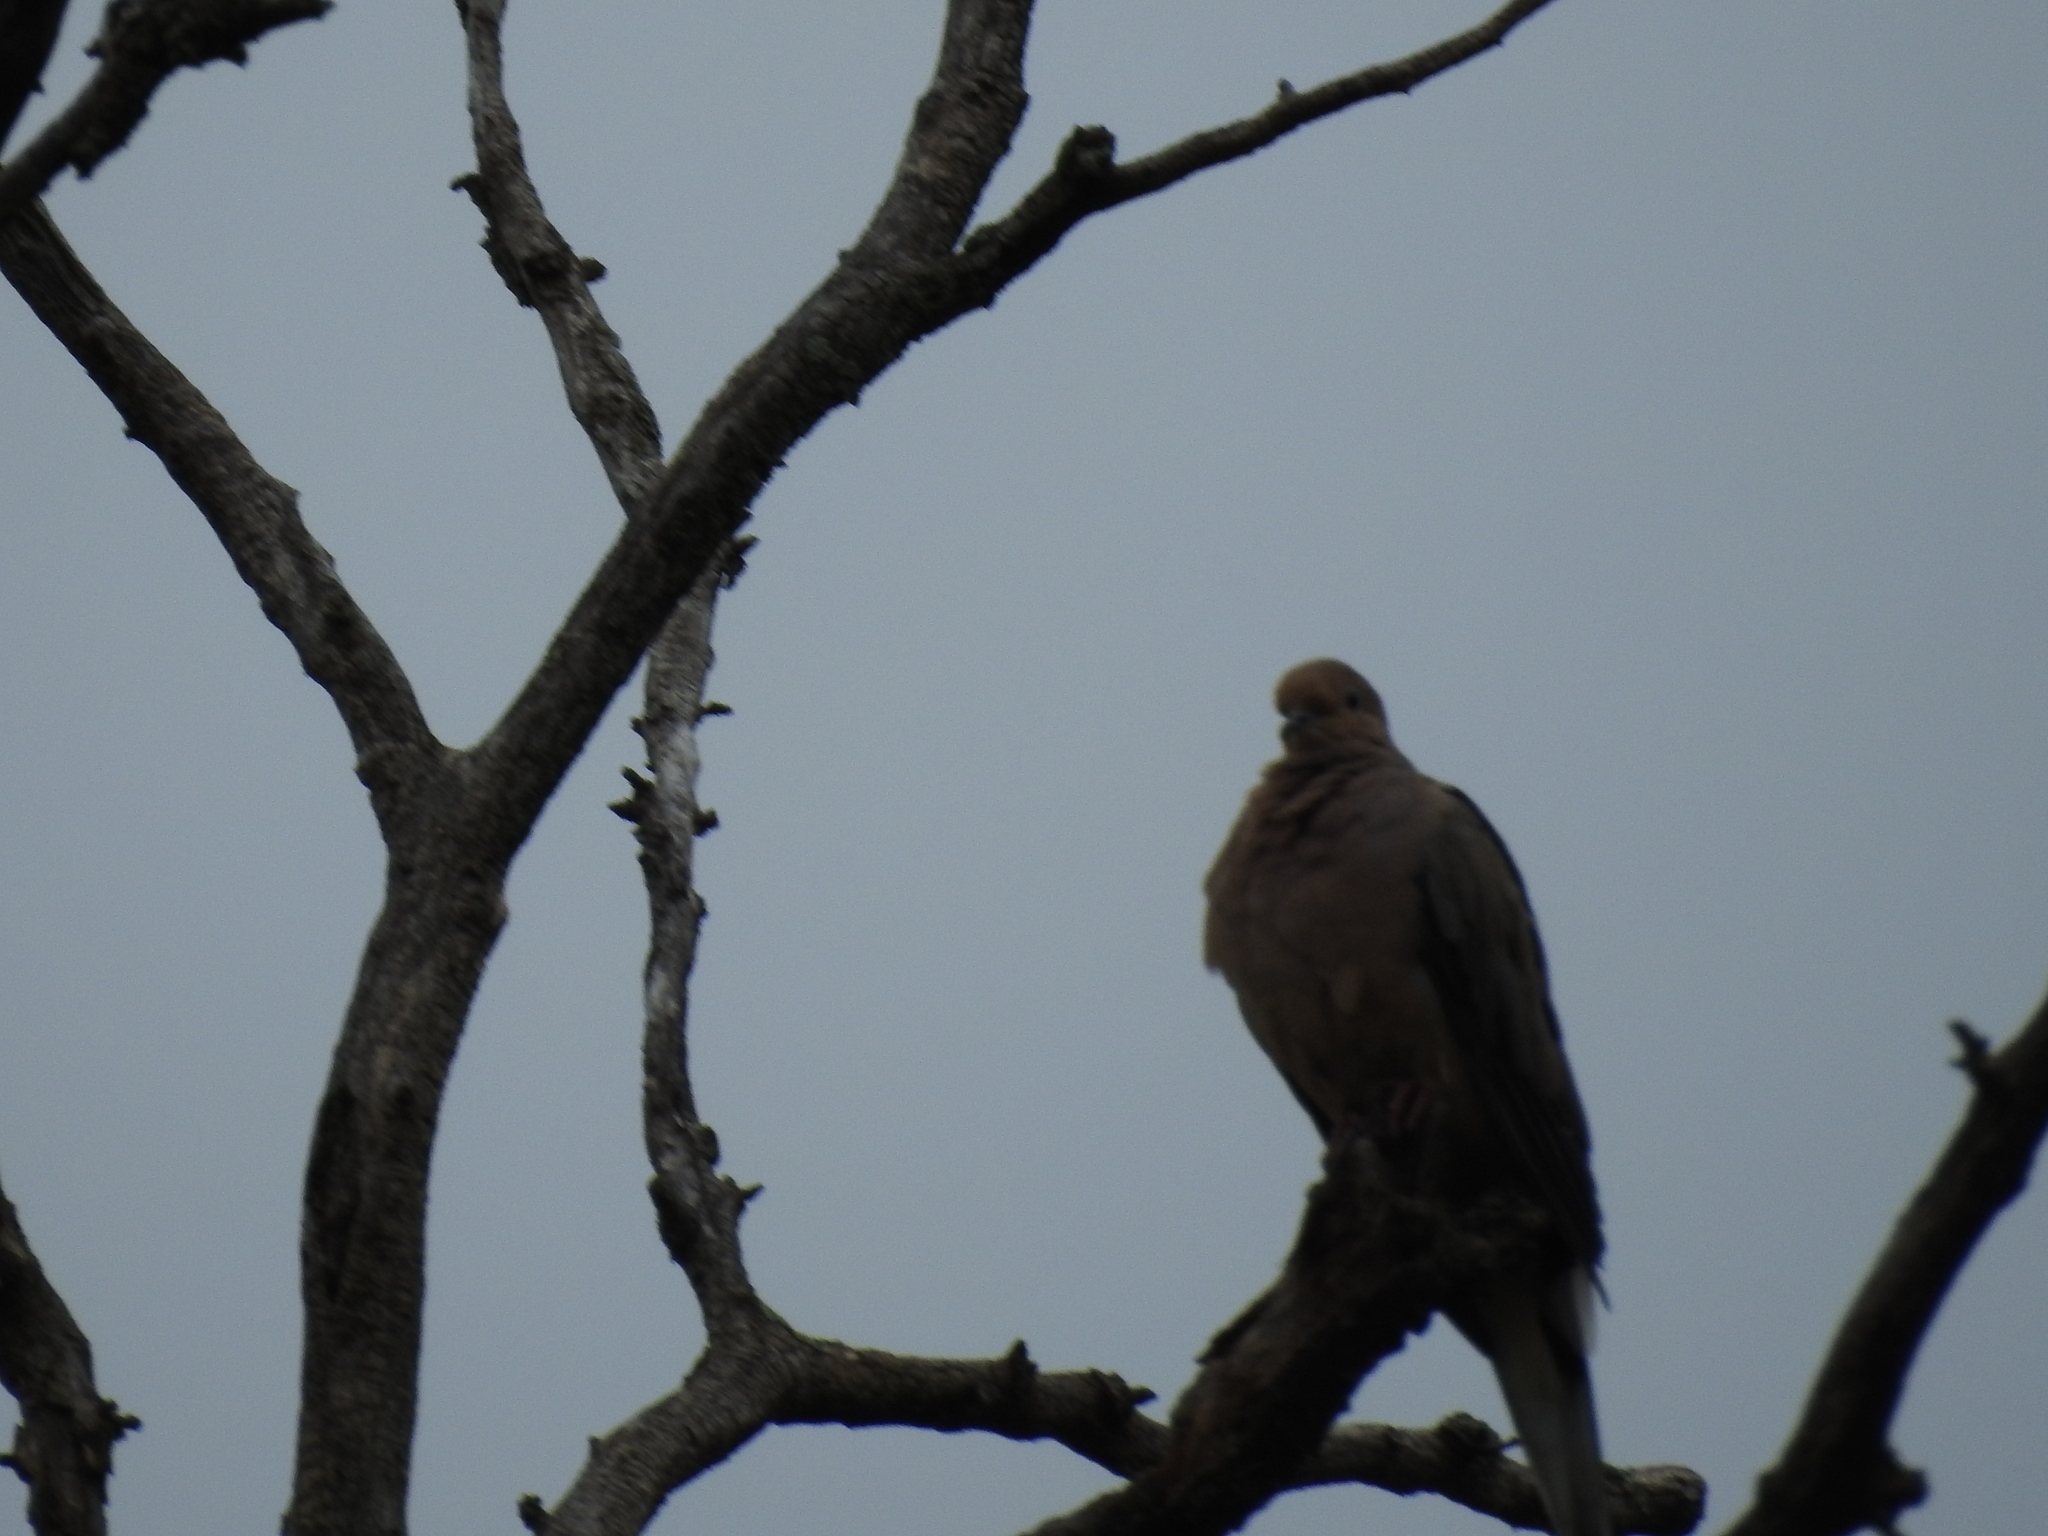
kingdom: Animalia
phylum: Chordata
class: Aves
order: Columbiformes
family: Columbidae
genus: Zenaida
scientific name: Zenaida macroura
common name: Mourning dove
